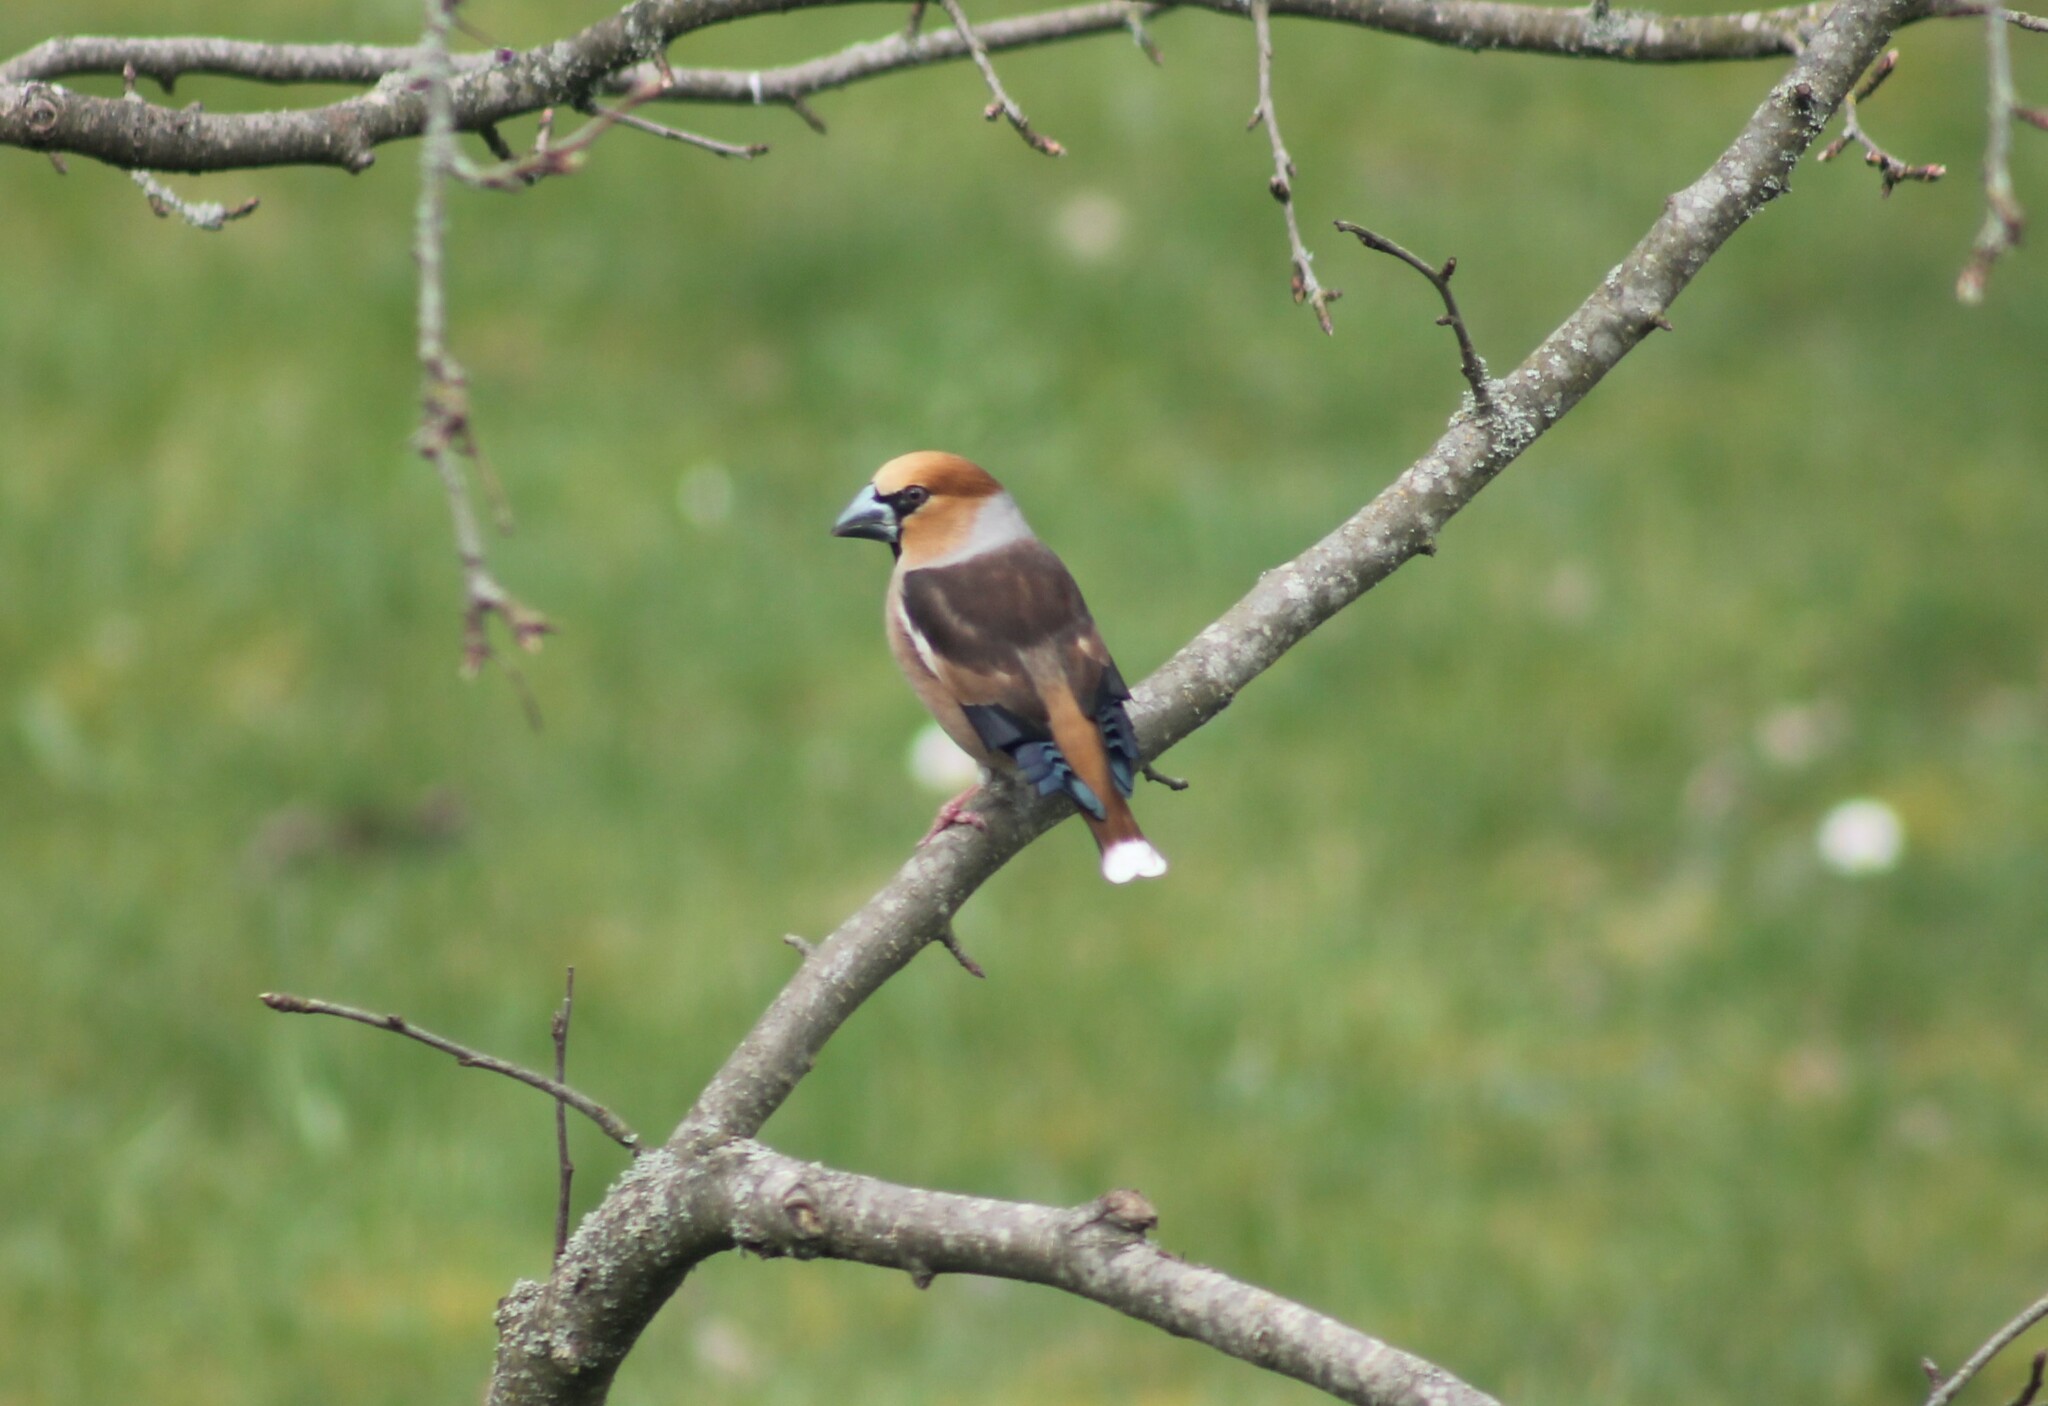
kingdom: Animalia
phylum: Chordata
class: Aves
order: Passeriformes
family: Fringillidae
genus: Coccothraustes
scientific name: Coccothraustes coccothraustes
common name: Hawfinch
